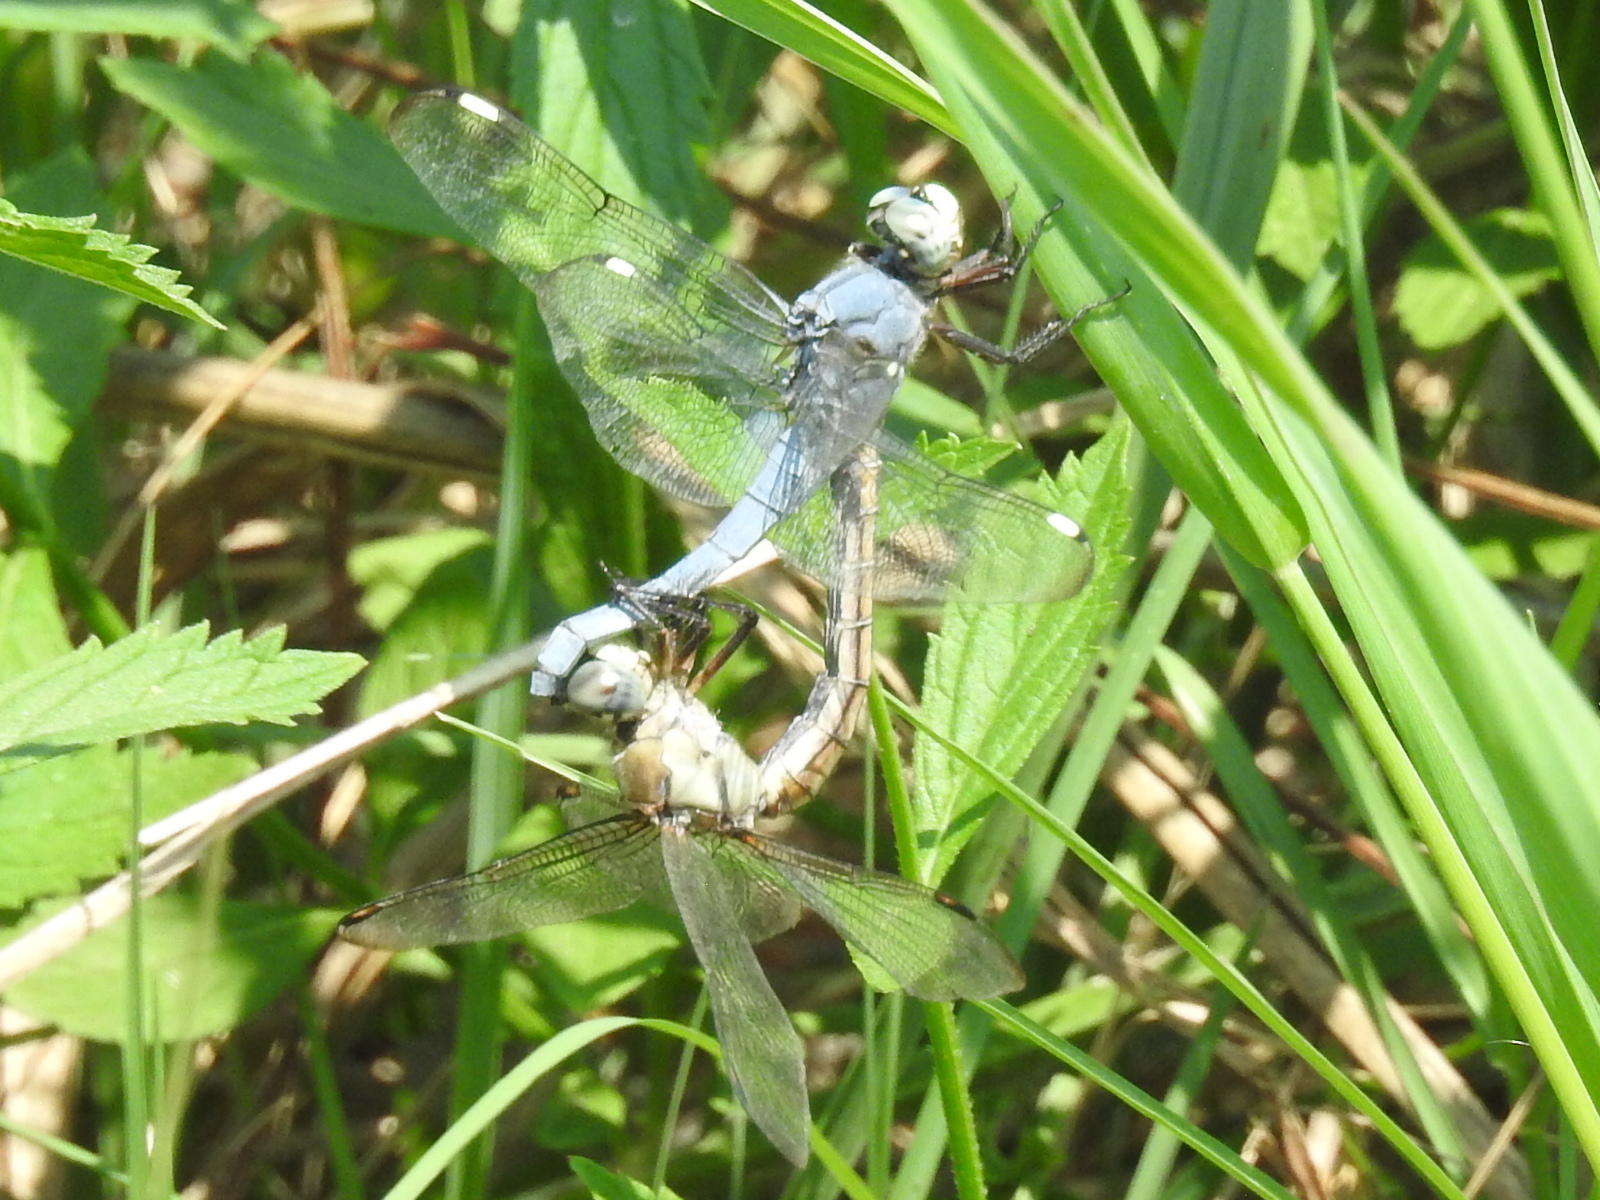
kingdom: Animalia
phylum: Arthropoda
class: Insecta
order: Odonata
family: Libellulidae
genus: Libellula
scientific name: Libellula comanche
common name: Comanche skimmer
